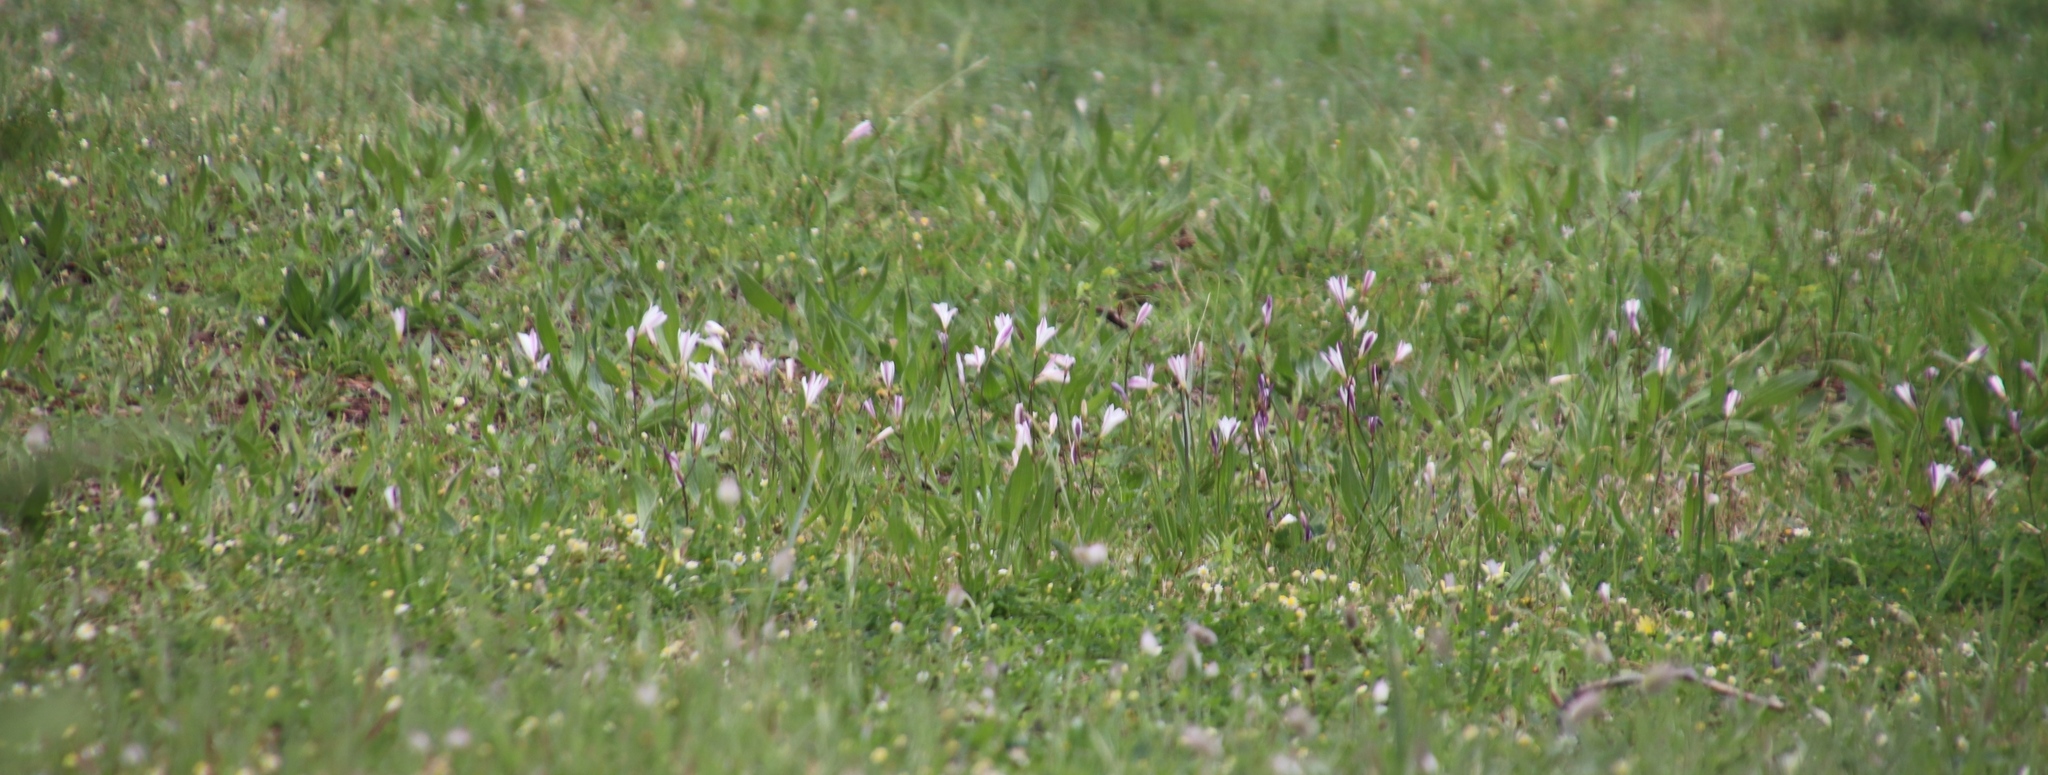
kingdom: Plantae
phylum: Tracheophyta
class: Liliopsida
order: Asparagales
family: Iridaceae
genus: Sparaxis
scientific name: Sparaxis bulbifera
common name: Harlequin-flower
